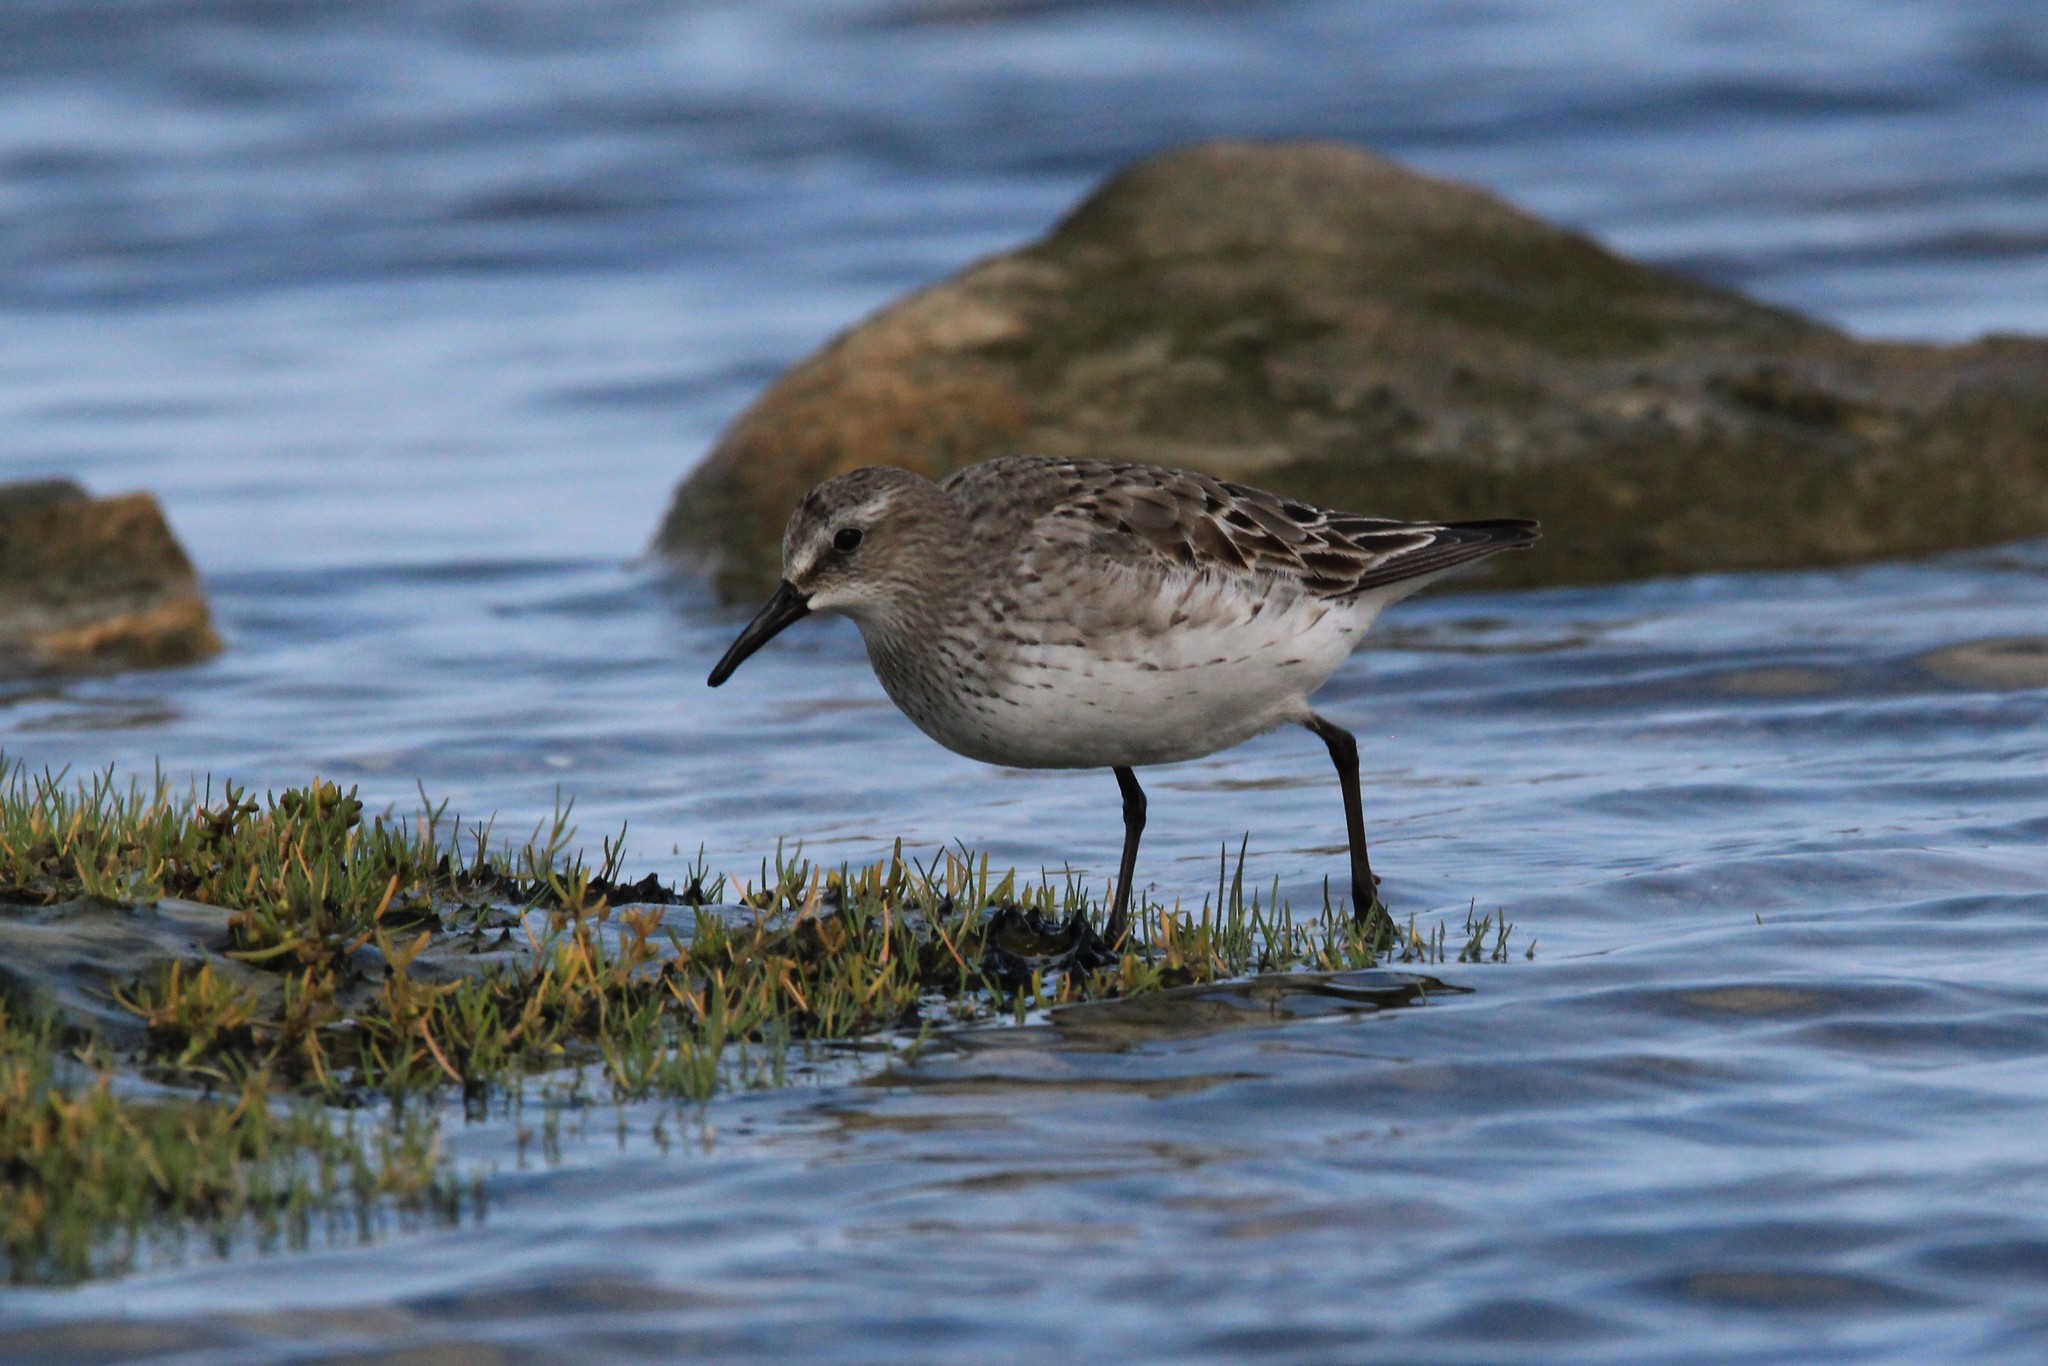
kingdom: Animalia
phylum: Chordata
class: Aves
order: Charadriiformes
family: Scolopacidae
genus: Calidris
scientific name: Calidris fuscicollis
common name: White-rumped sandpiper
